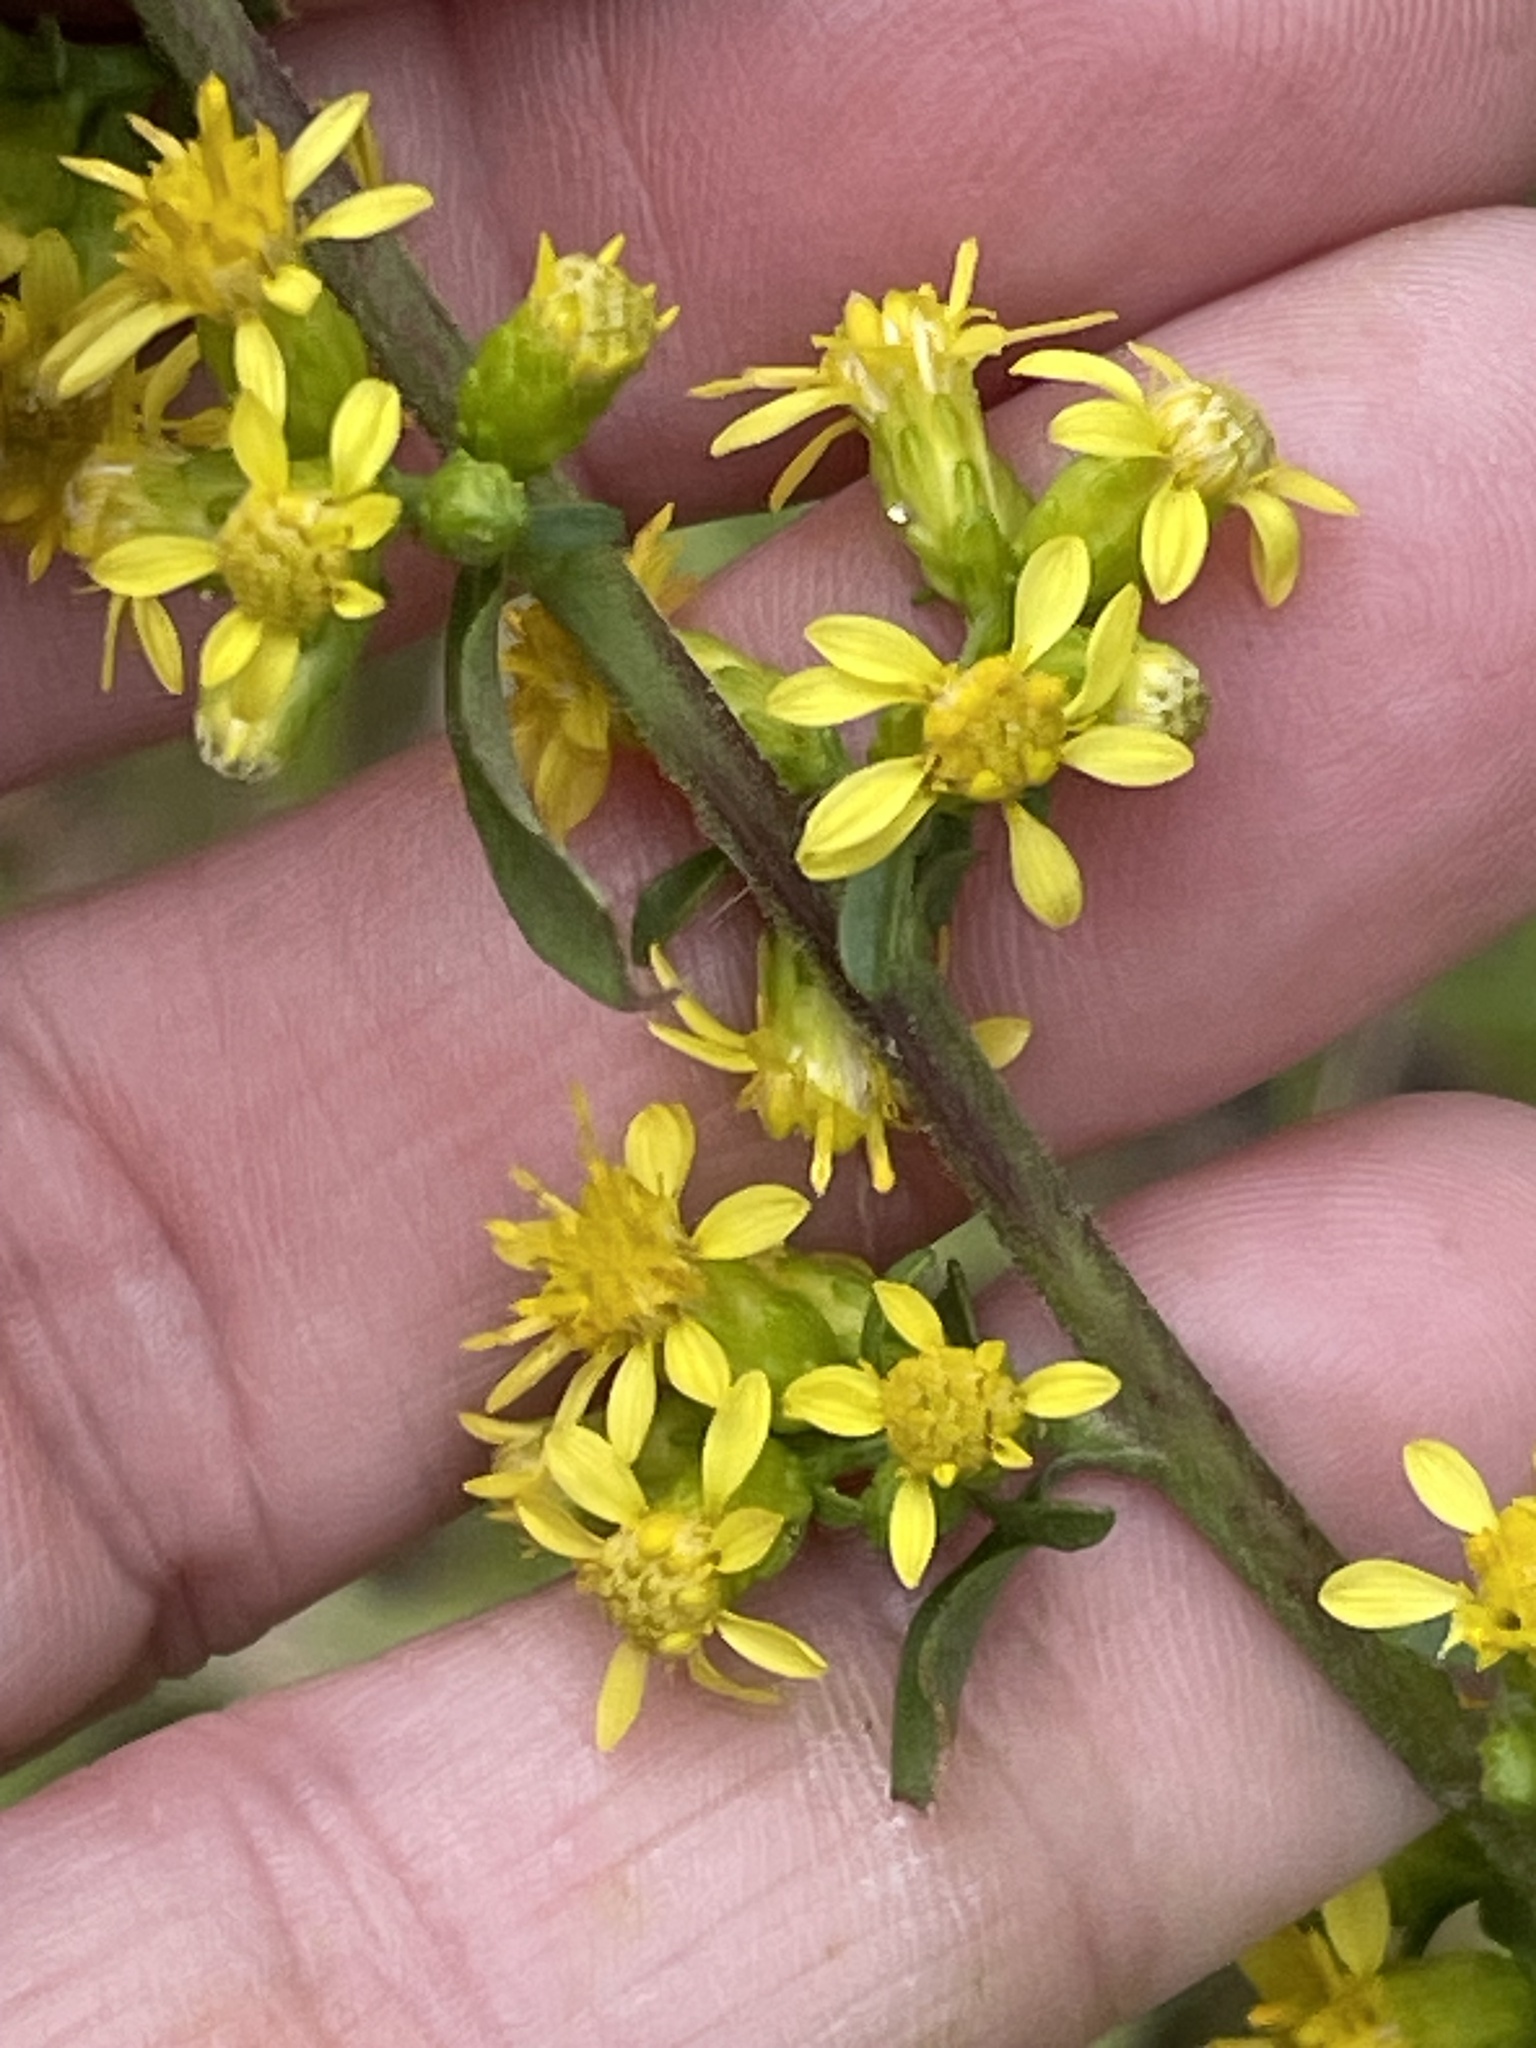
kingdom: Plantae
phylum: Tracheophyta
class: Magnoliopsida
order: Asterales
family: Asteraceae
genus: Solidago
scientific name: Solidago erecta
